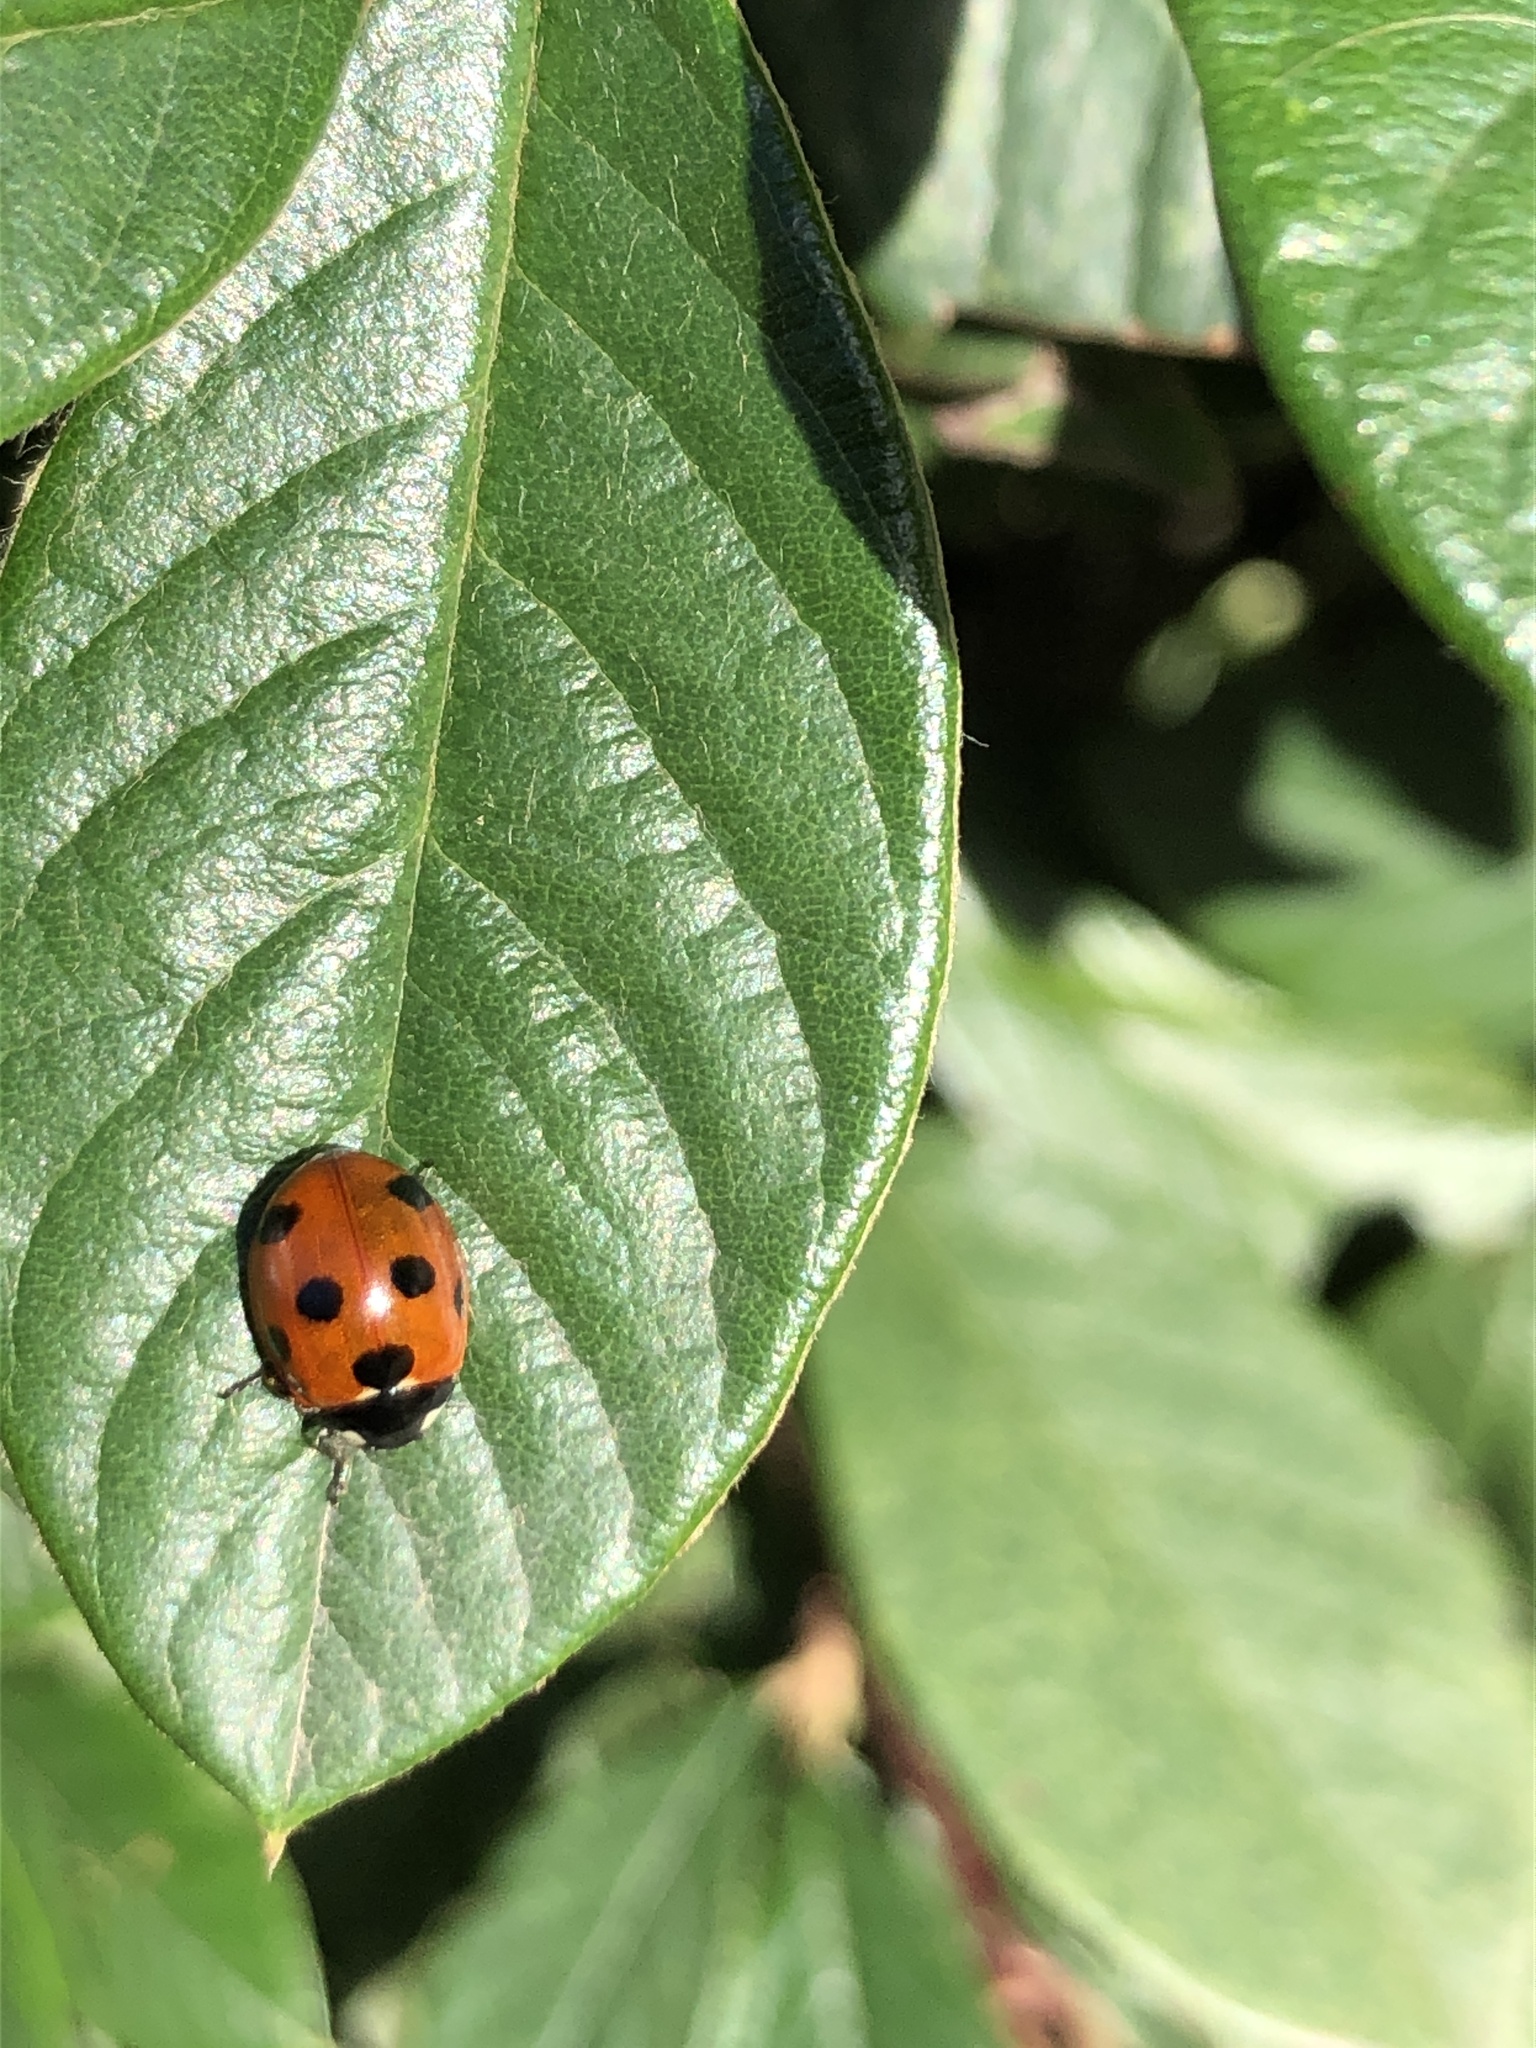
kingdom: Animalia
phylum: Arthropoda
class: Insecta
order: Coleoptera
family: Coccinellidae
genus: Coccinella
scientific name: Coccinella septempunctata
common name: Sevenspotted lady beetle
